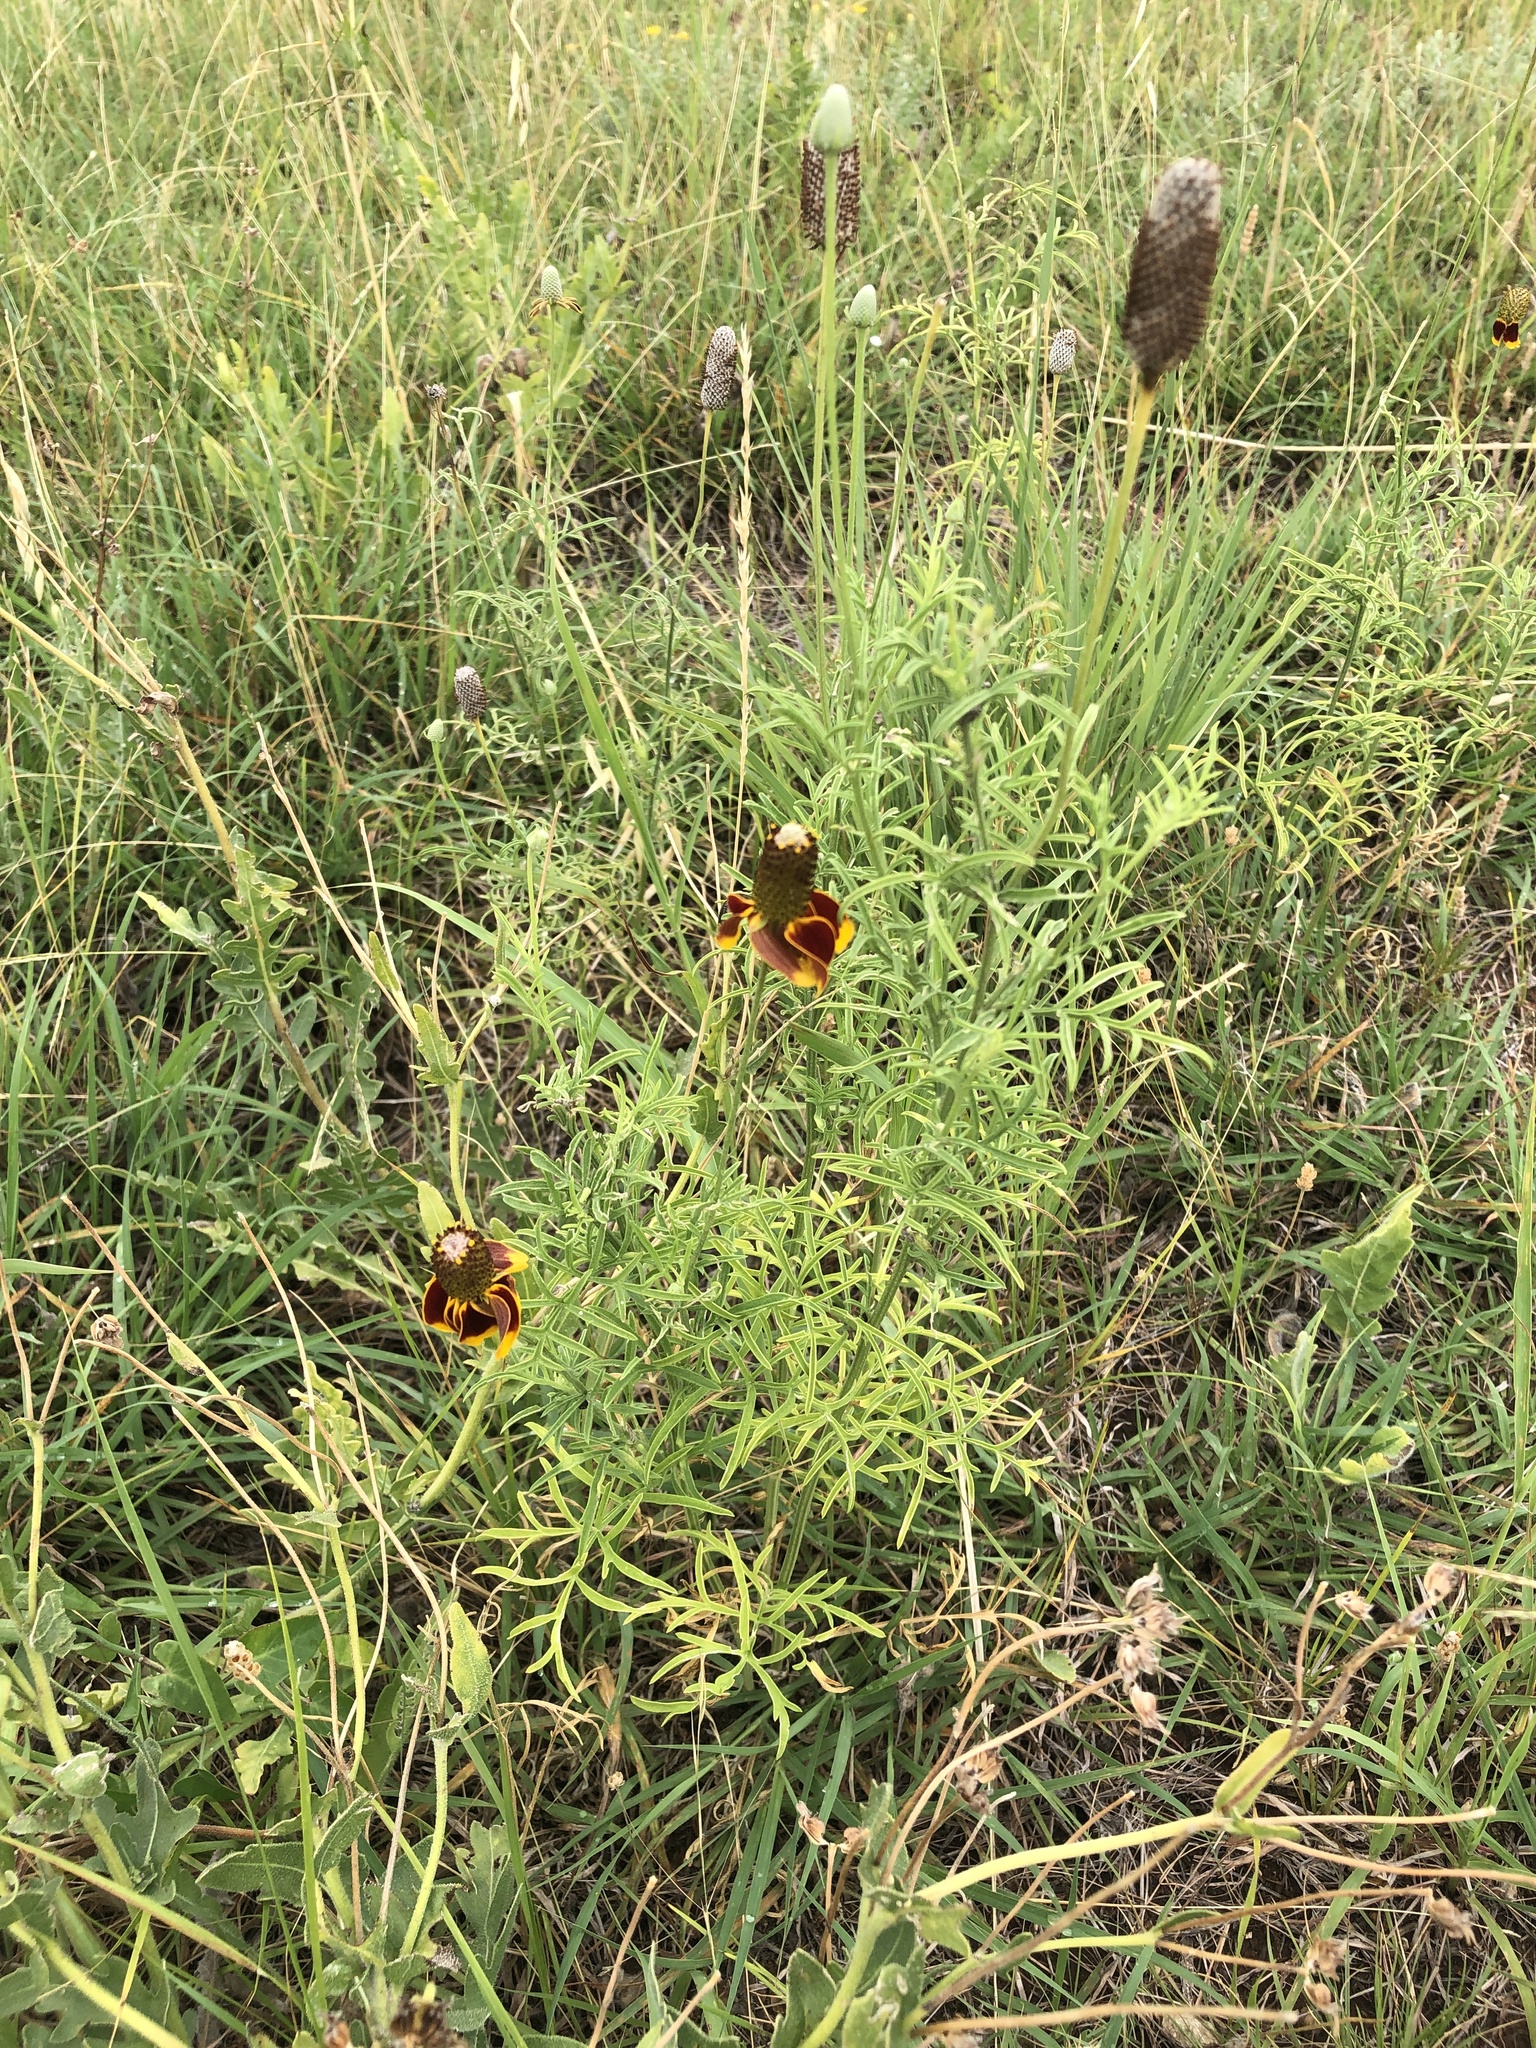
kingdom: Plantae
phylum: Tracheophyta
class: Magnoliopsida
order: Asterales
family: Asteraceae
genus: Ratibida
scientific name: Ratibida columnifera
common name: Prairie coneflower
